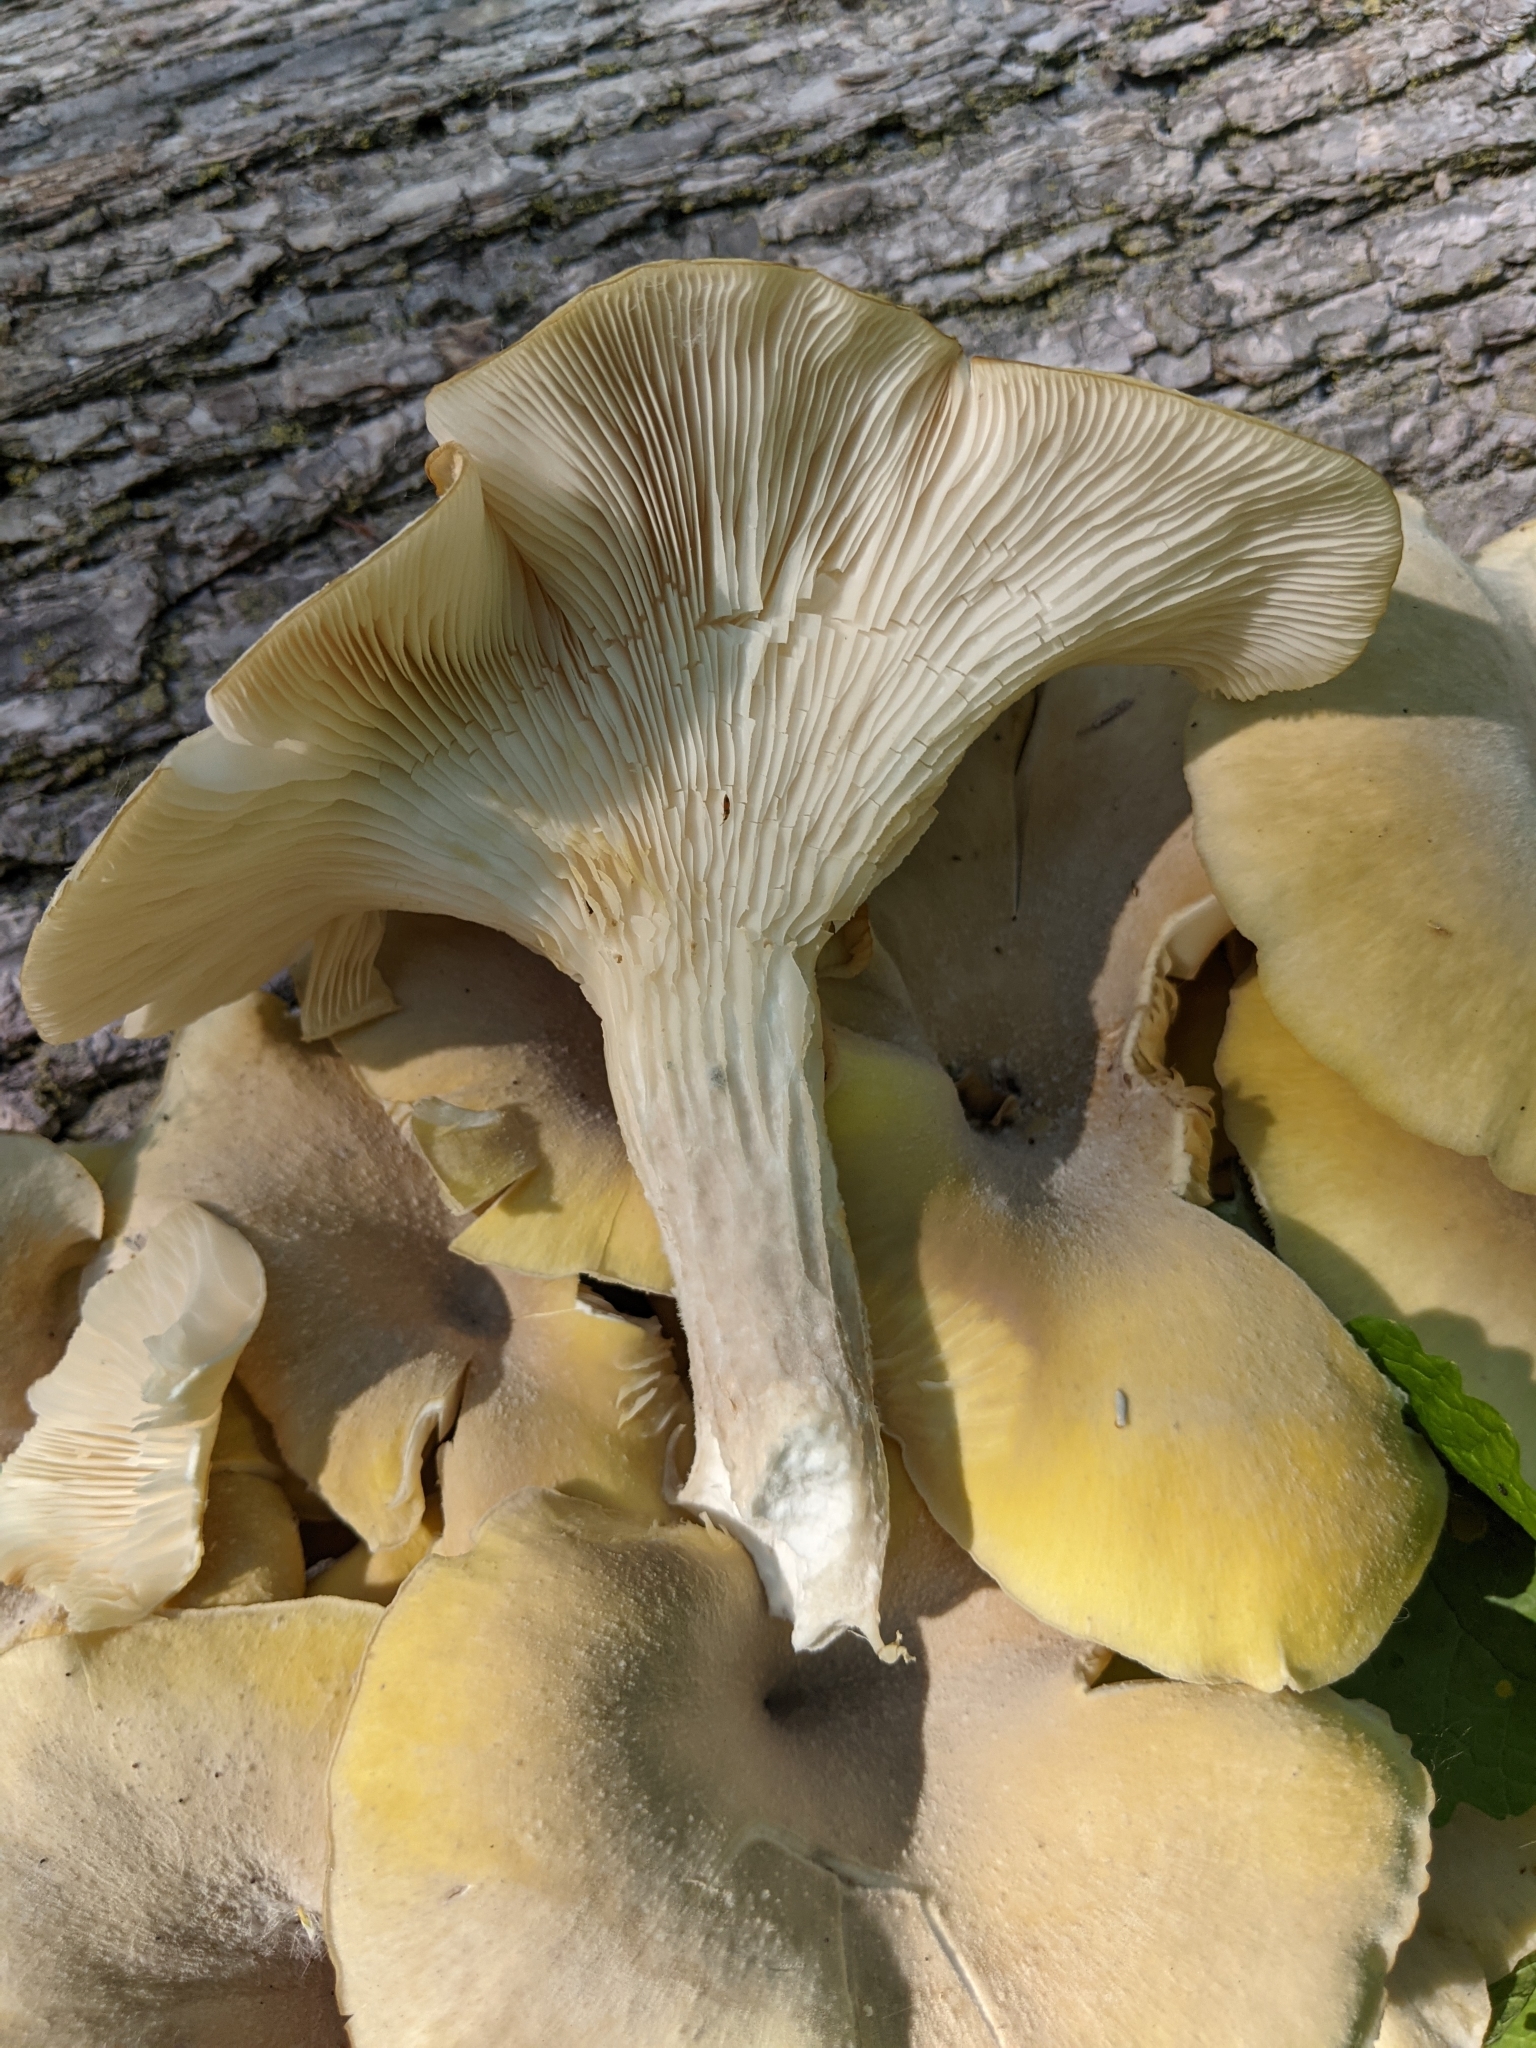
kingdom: Fungi
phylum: Basidiomycota
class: Agaricomycetes
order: Agaricales
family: Pleurotaceae
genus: Pleurotus
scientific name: Pleurotus citrinopileatus
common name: Golden oyster mushroom
